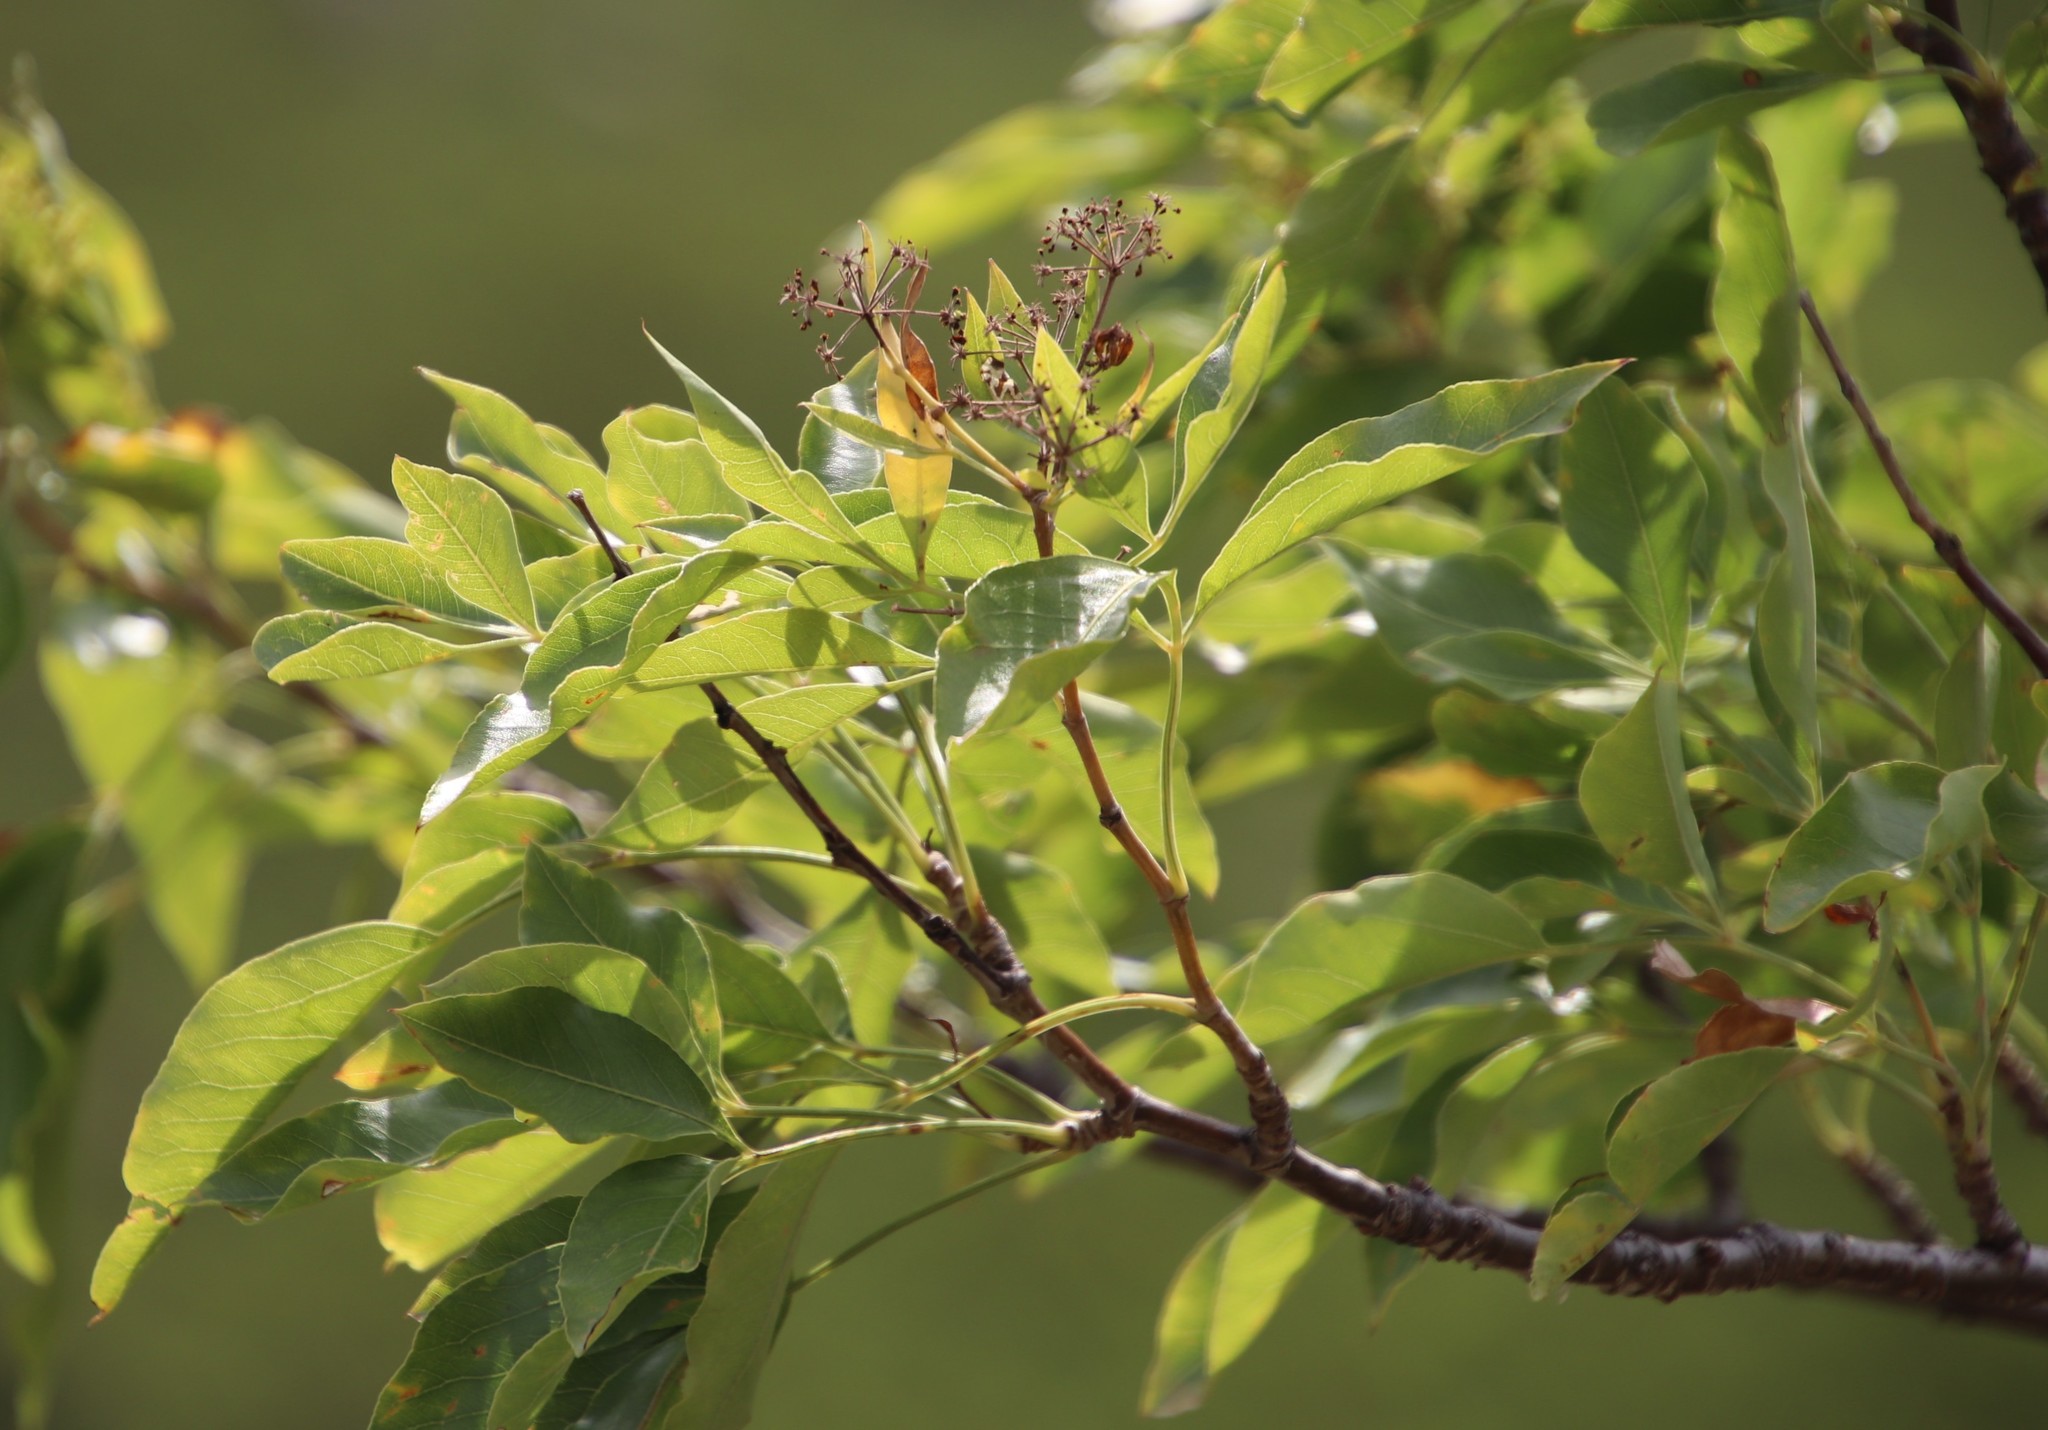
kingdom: Plantae
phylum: Tracheophyta
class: Magnoliopsida
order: Apiales
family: Apiaceae
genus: Heteromorpha
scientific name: Heteromorpha arborescens
